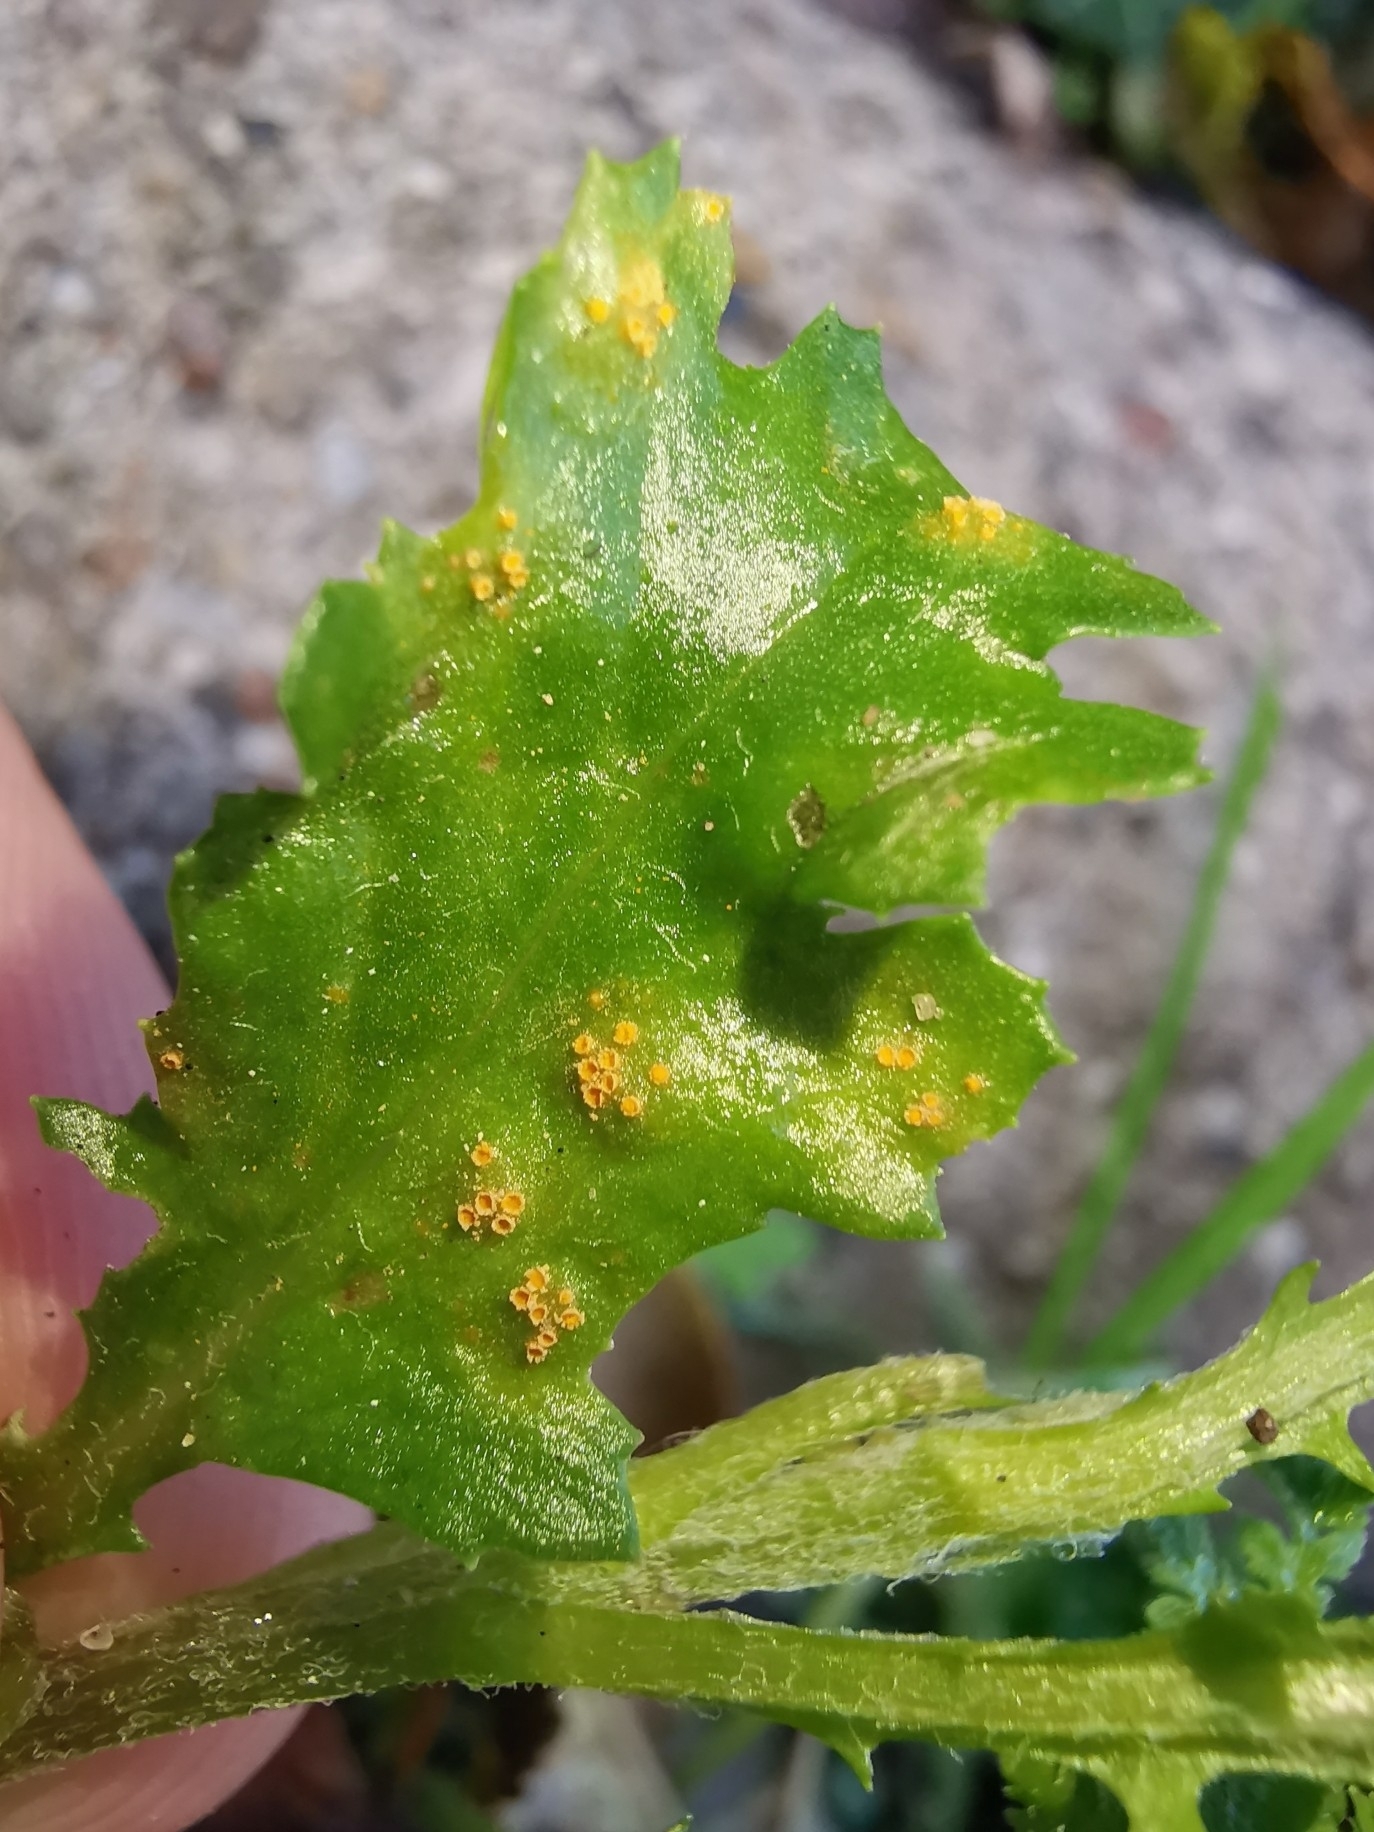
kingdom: Fungi
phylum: Basidiomycota
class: Pucciniomycetes
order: Pucciniales
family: Pucciniaceae
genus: Puccinia
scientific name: Puccinia lagenophorae
